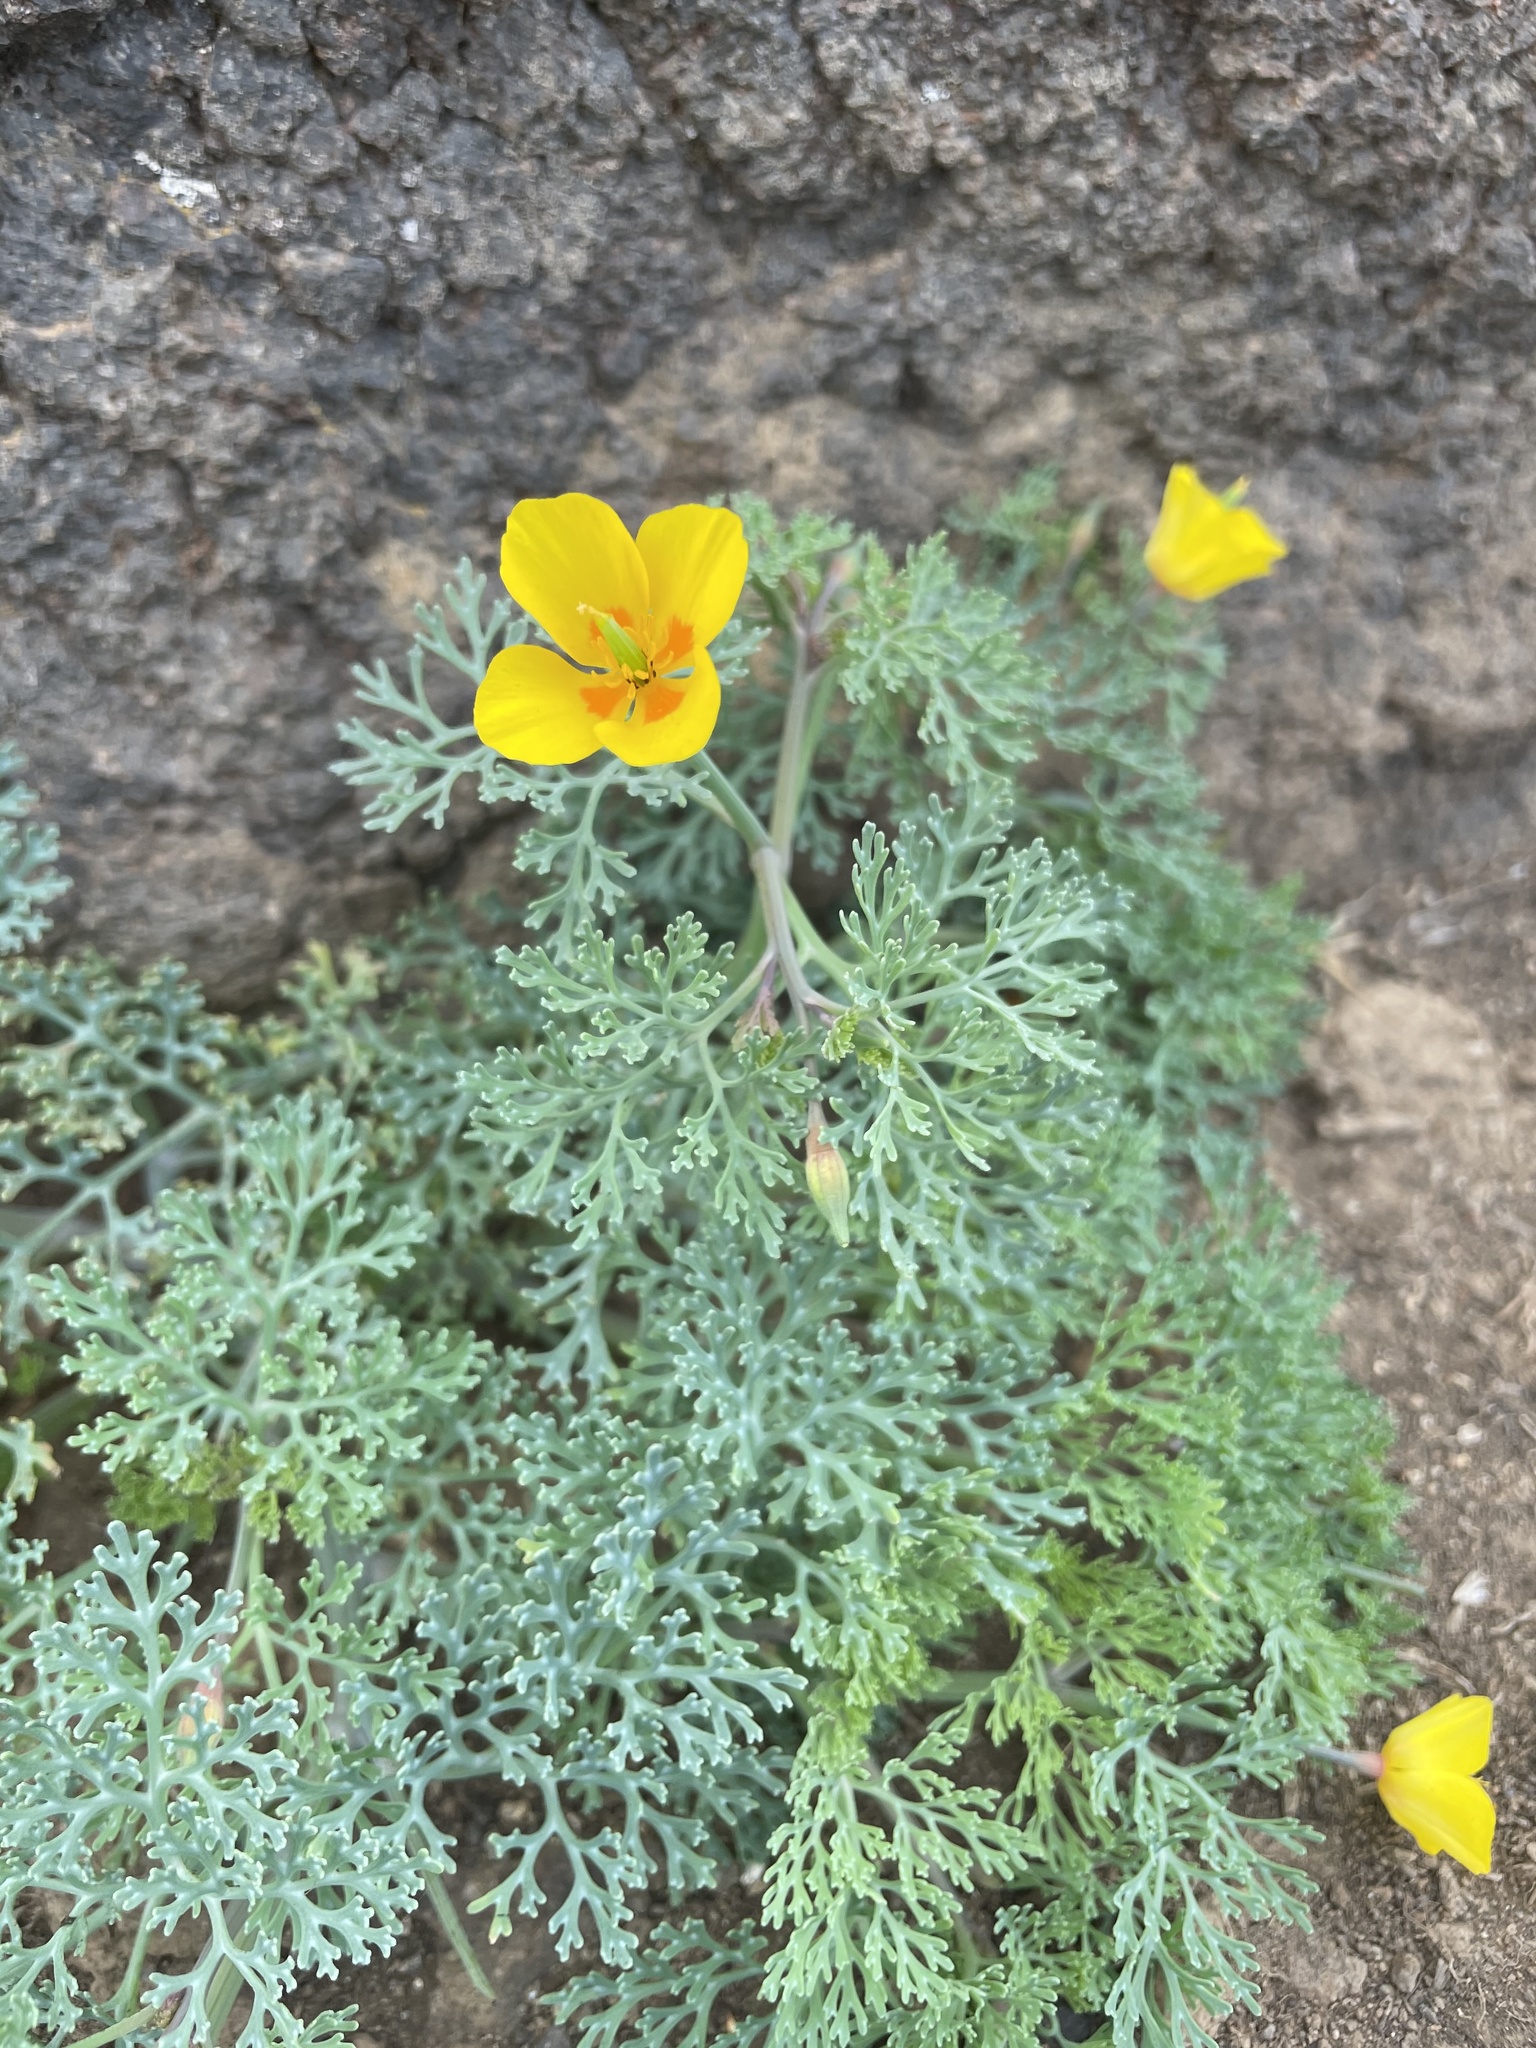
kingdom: Plantae
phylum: Tracheophyta
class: Magnoliopsida
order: Ranunculales
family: Papaveraceae
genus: Eschscholzia
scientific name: Eschscholzia ramosa
